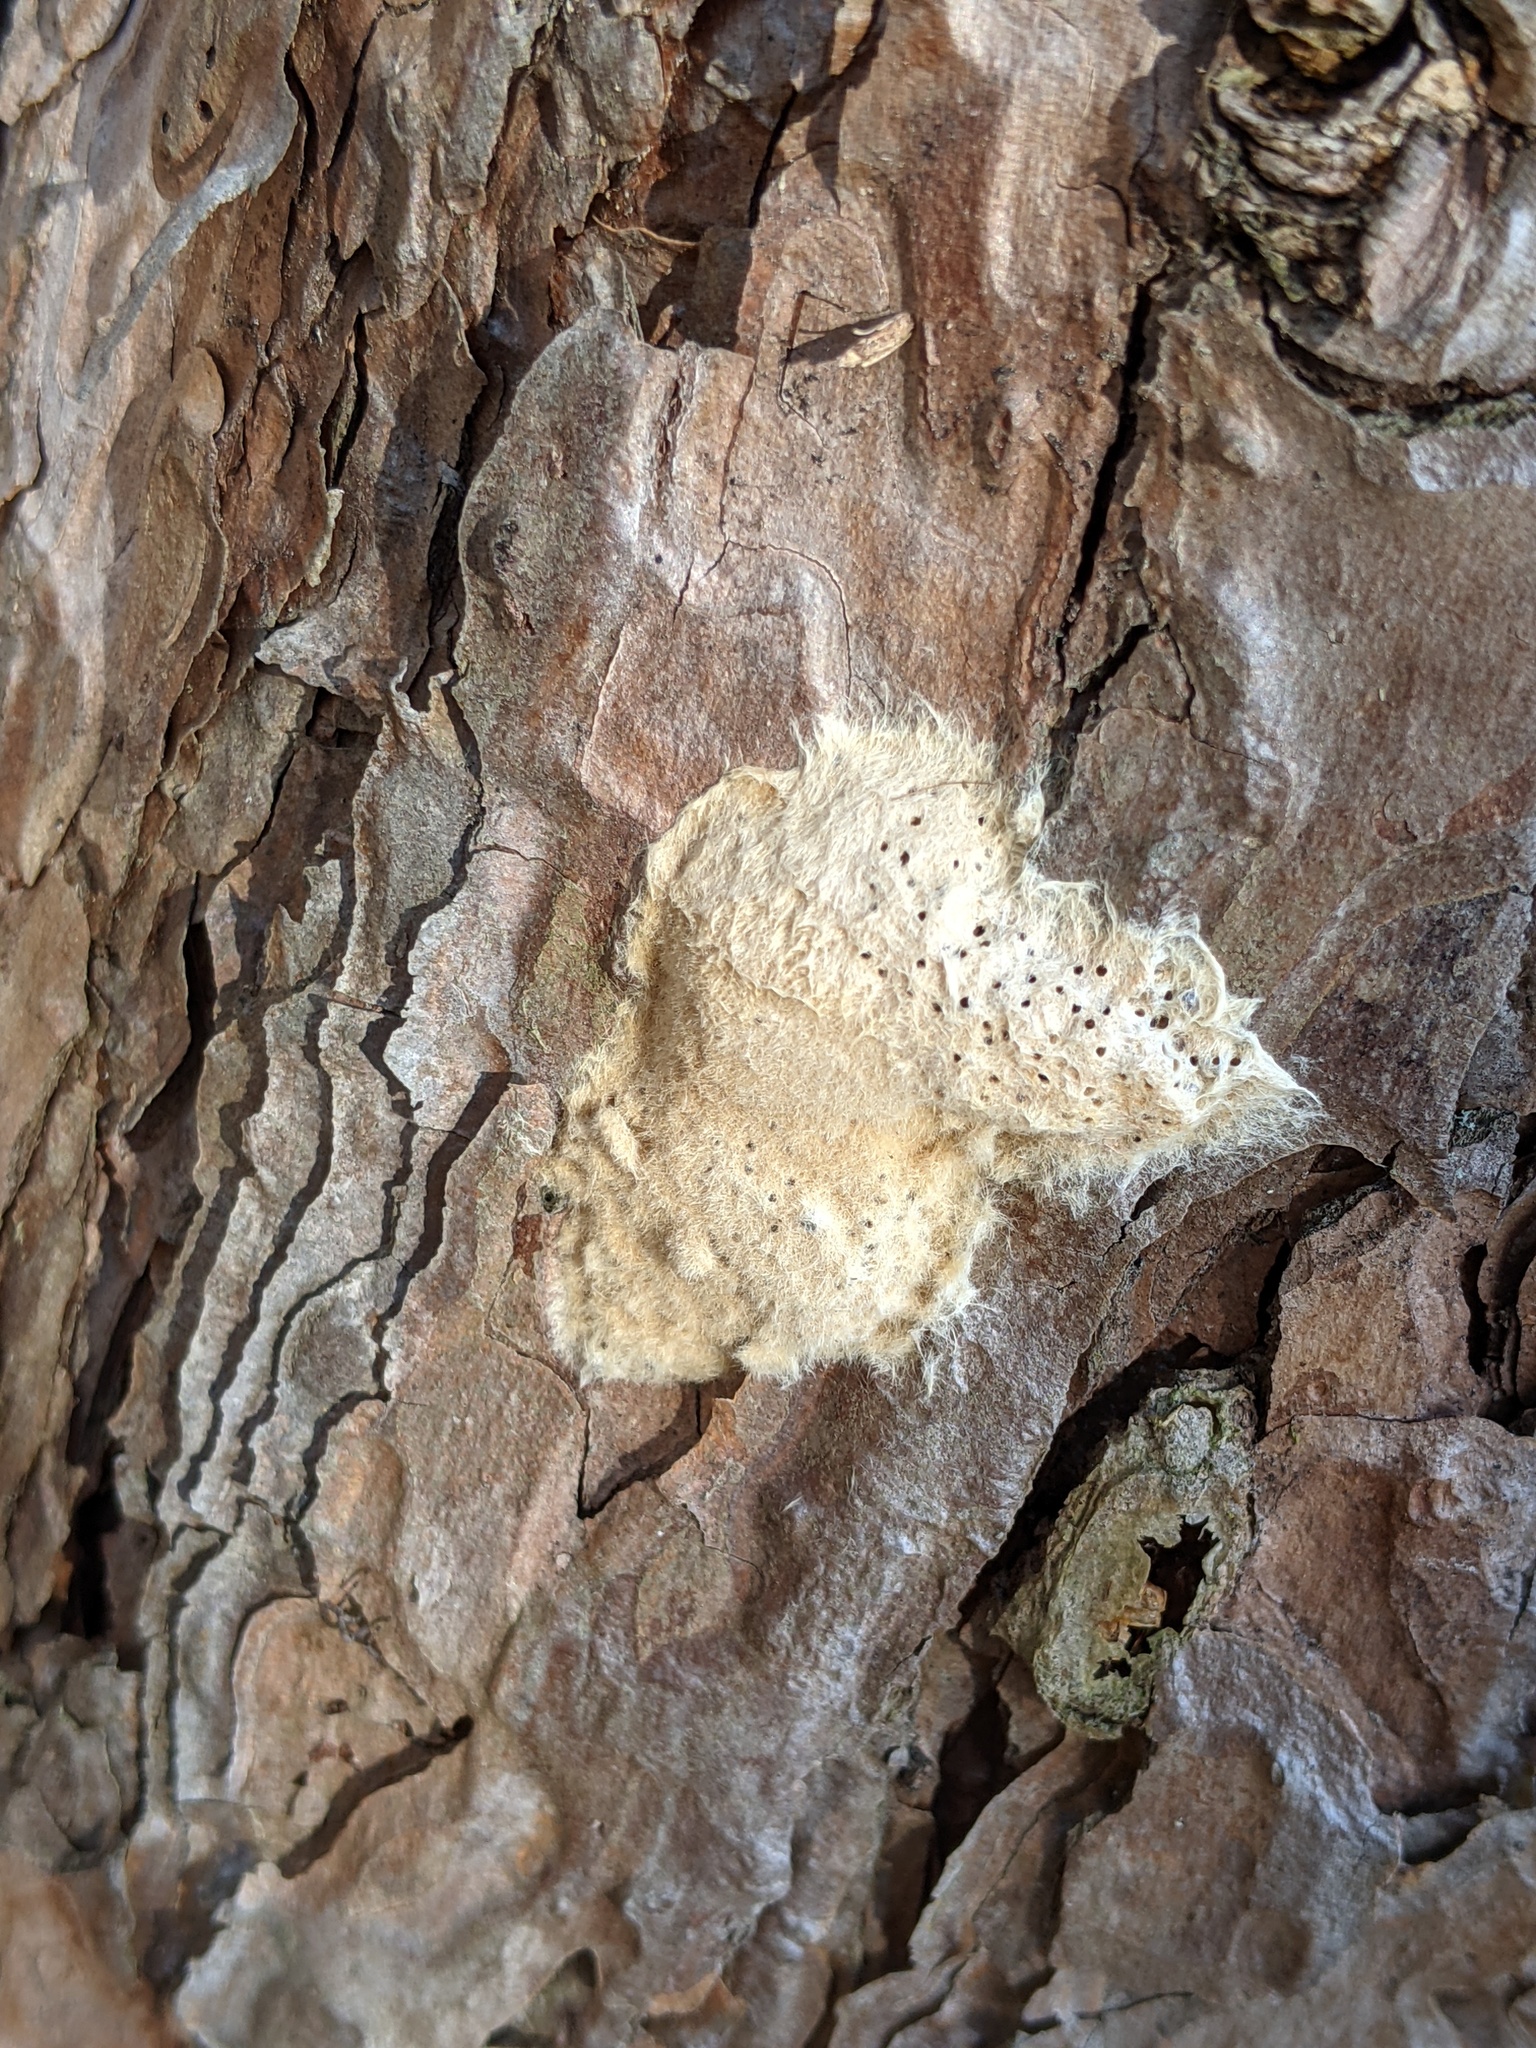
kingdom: Animalia
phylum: Arthropoda
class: Insecta
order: Lepidoptera
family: Erebidae
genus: Lymantria
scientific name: Lymantria dispar
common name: Gypsy moth
